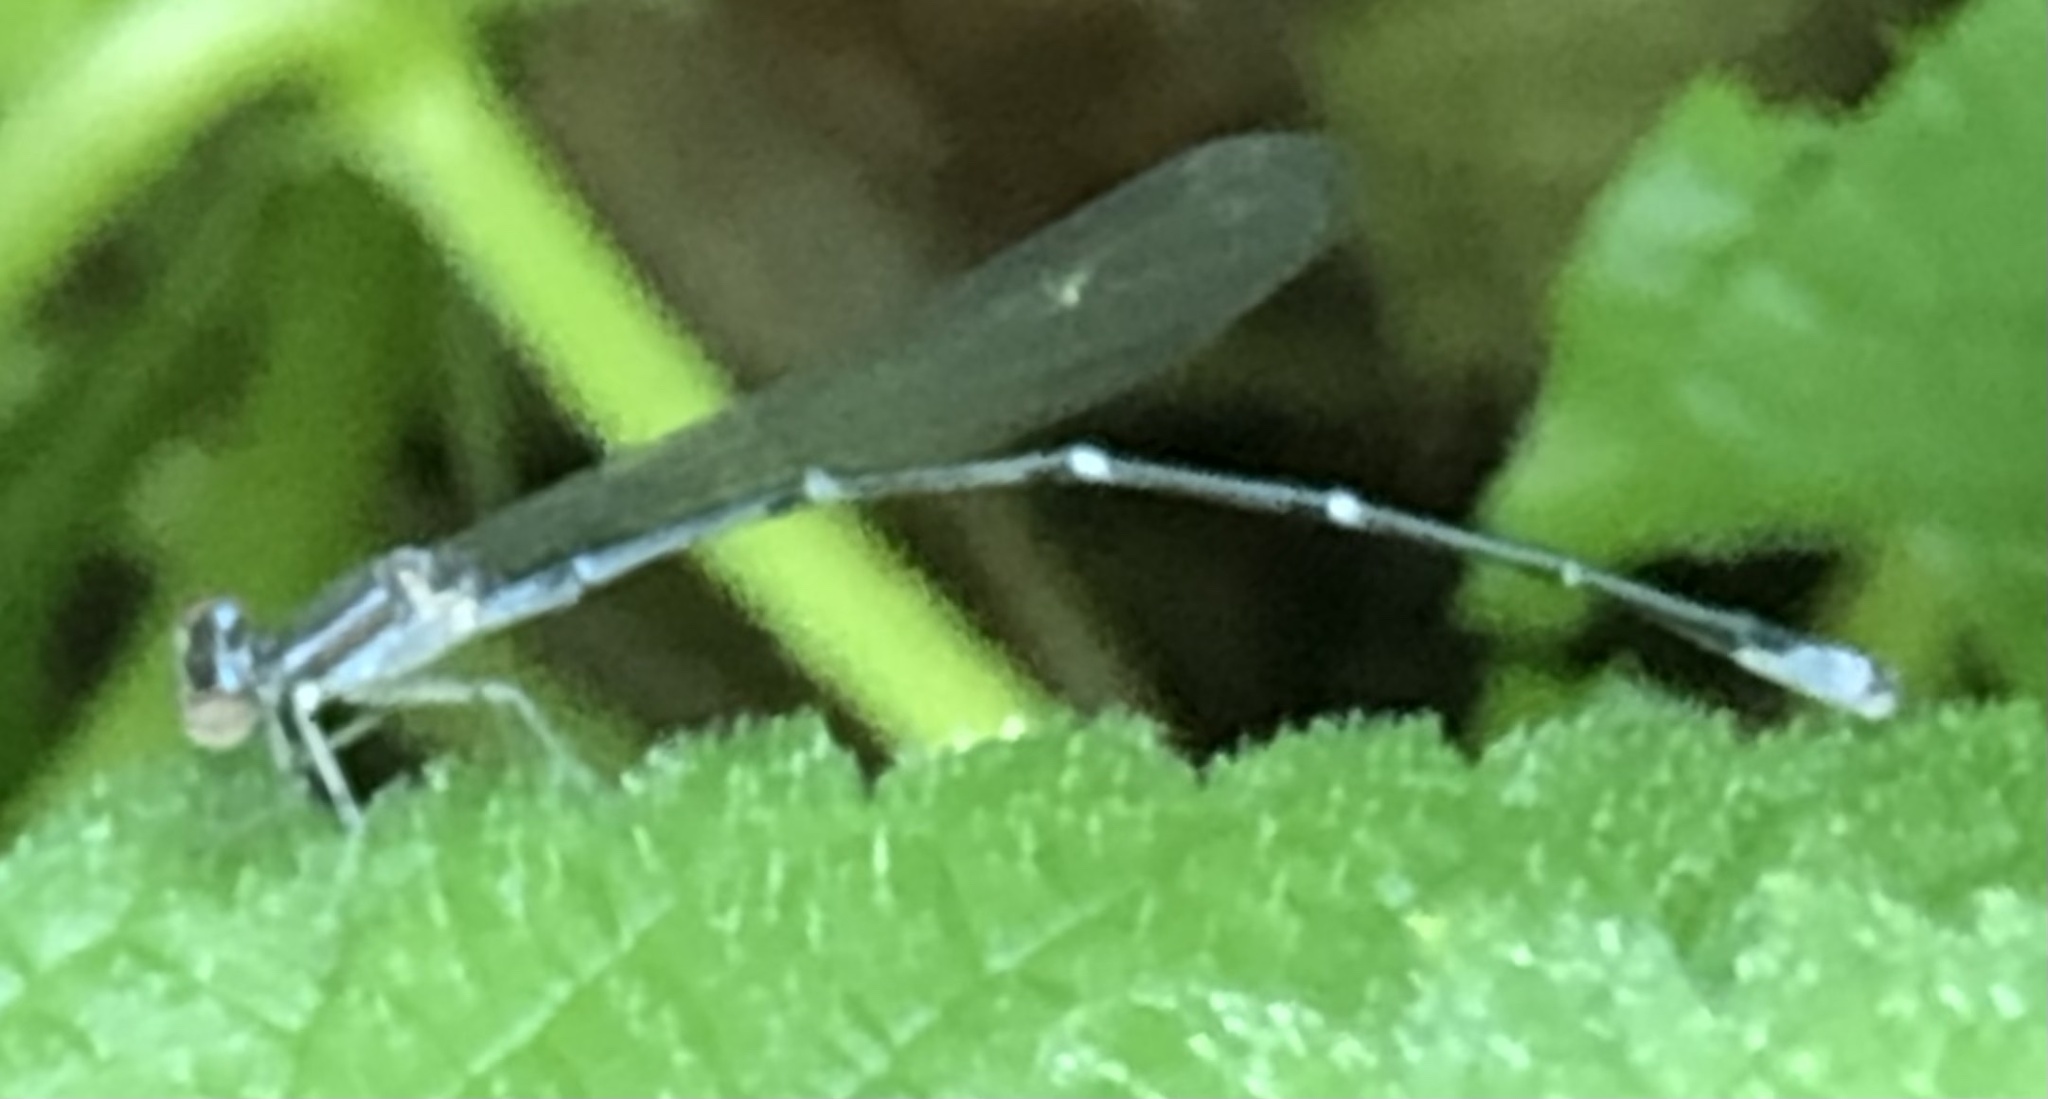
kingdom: Animalia
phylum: Arthropoda
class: Insecta
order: Odonata
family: Coenagrionidae
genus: Enallagma
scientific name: Enallagma exsulans
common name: Stream bluet
